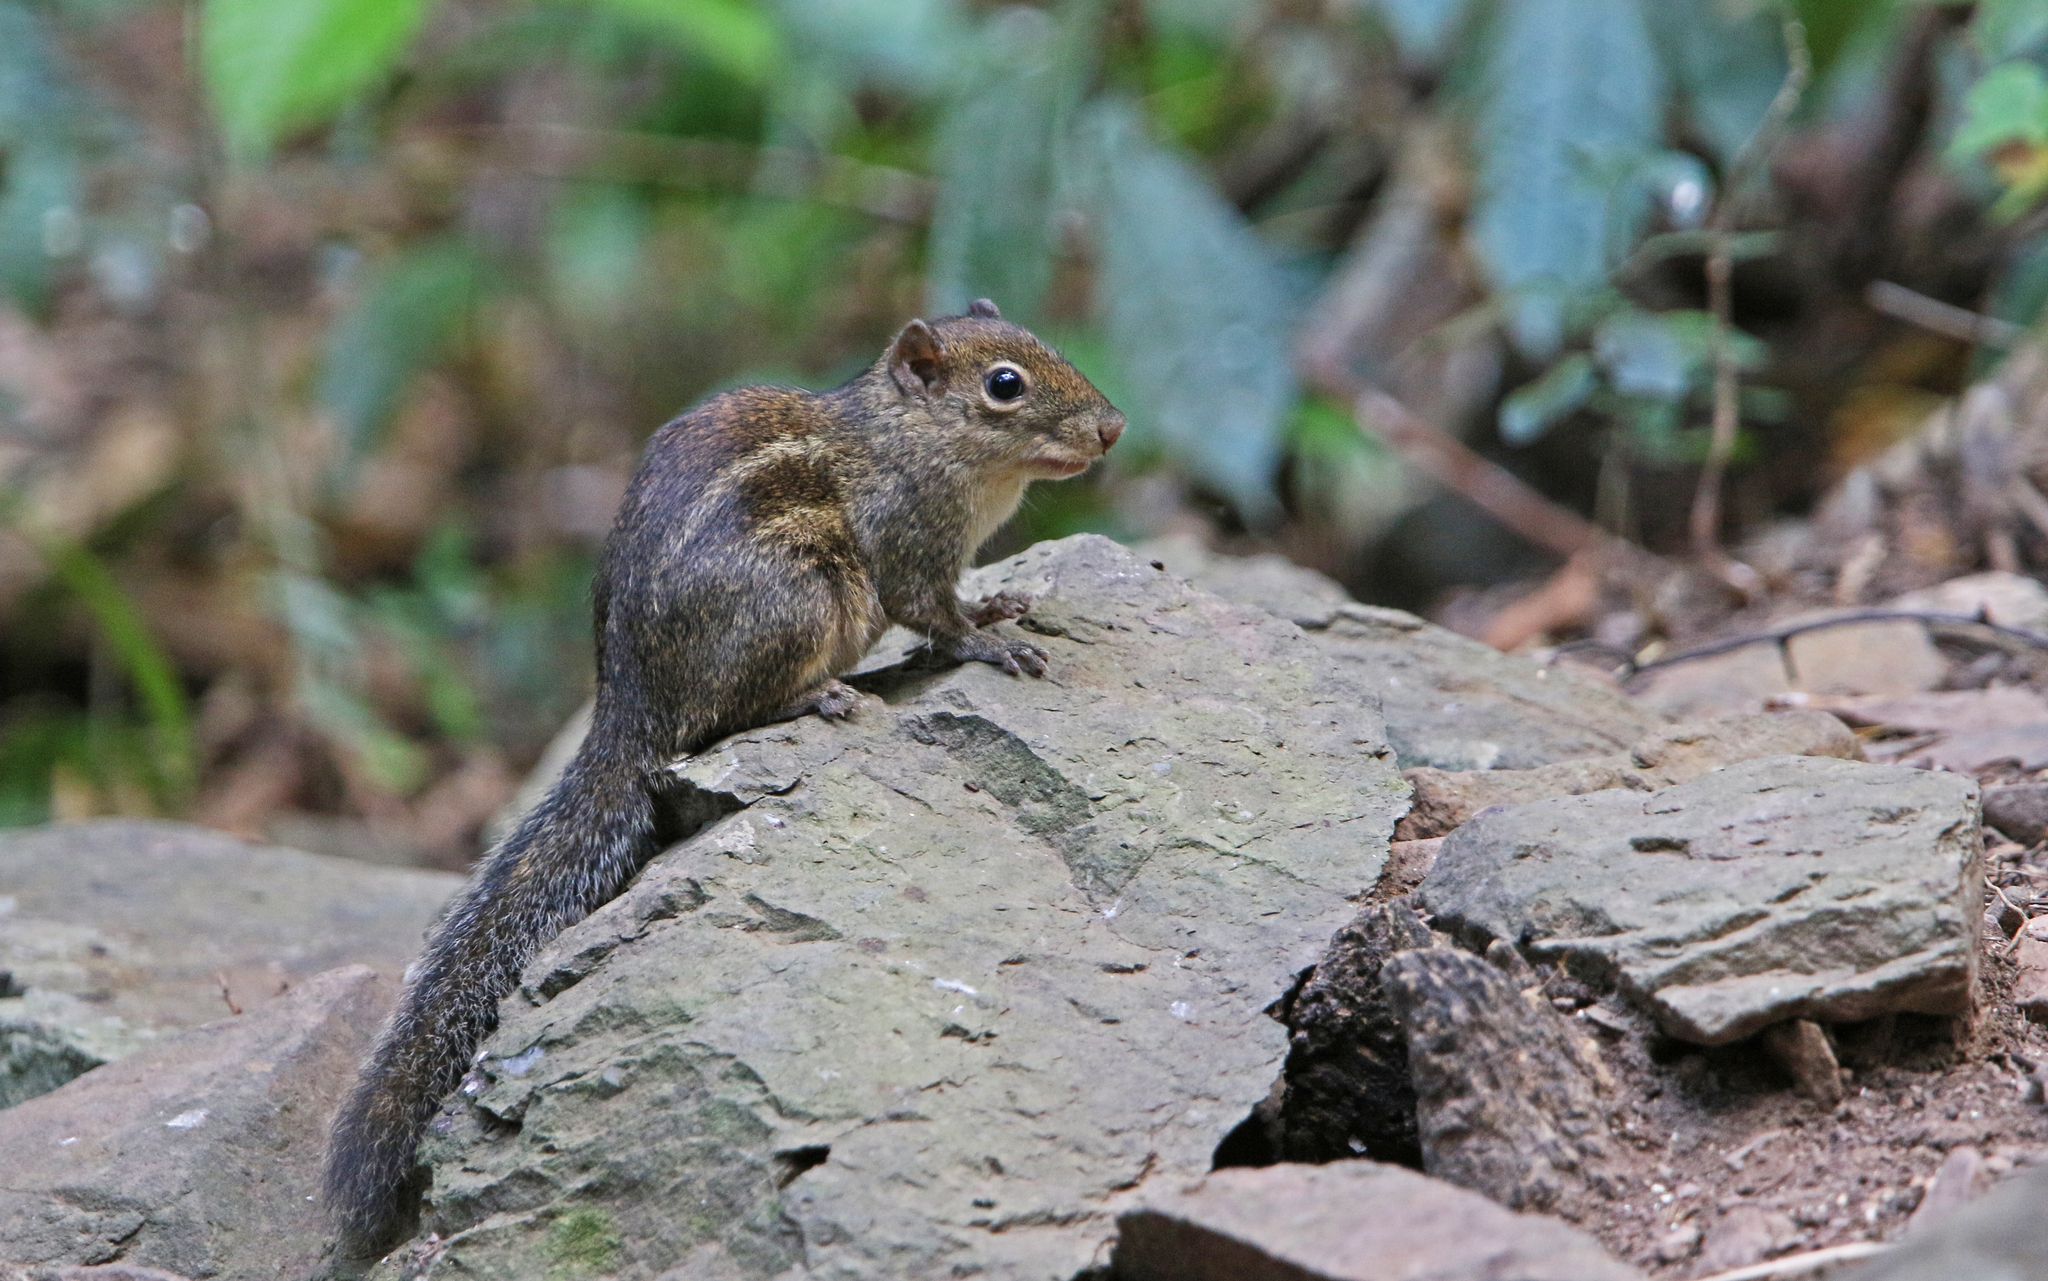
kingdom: Animalia
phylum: Chordata
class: Mammalia
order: Rodentia
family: Sciuridae
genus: Menetes
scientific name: Menetes berdmorei
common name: Indochinese ground squirrel
